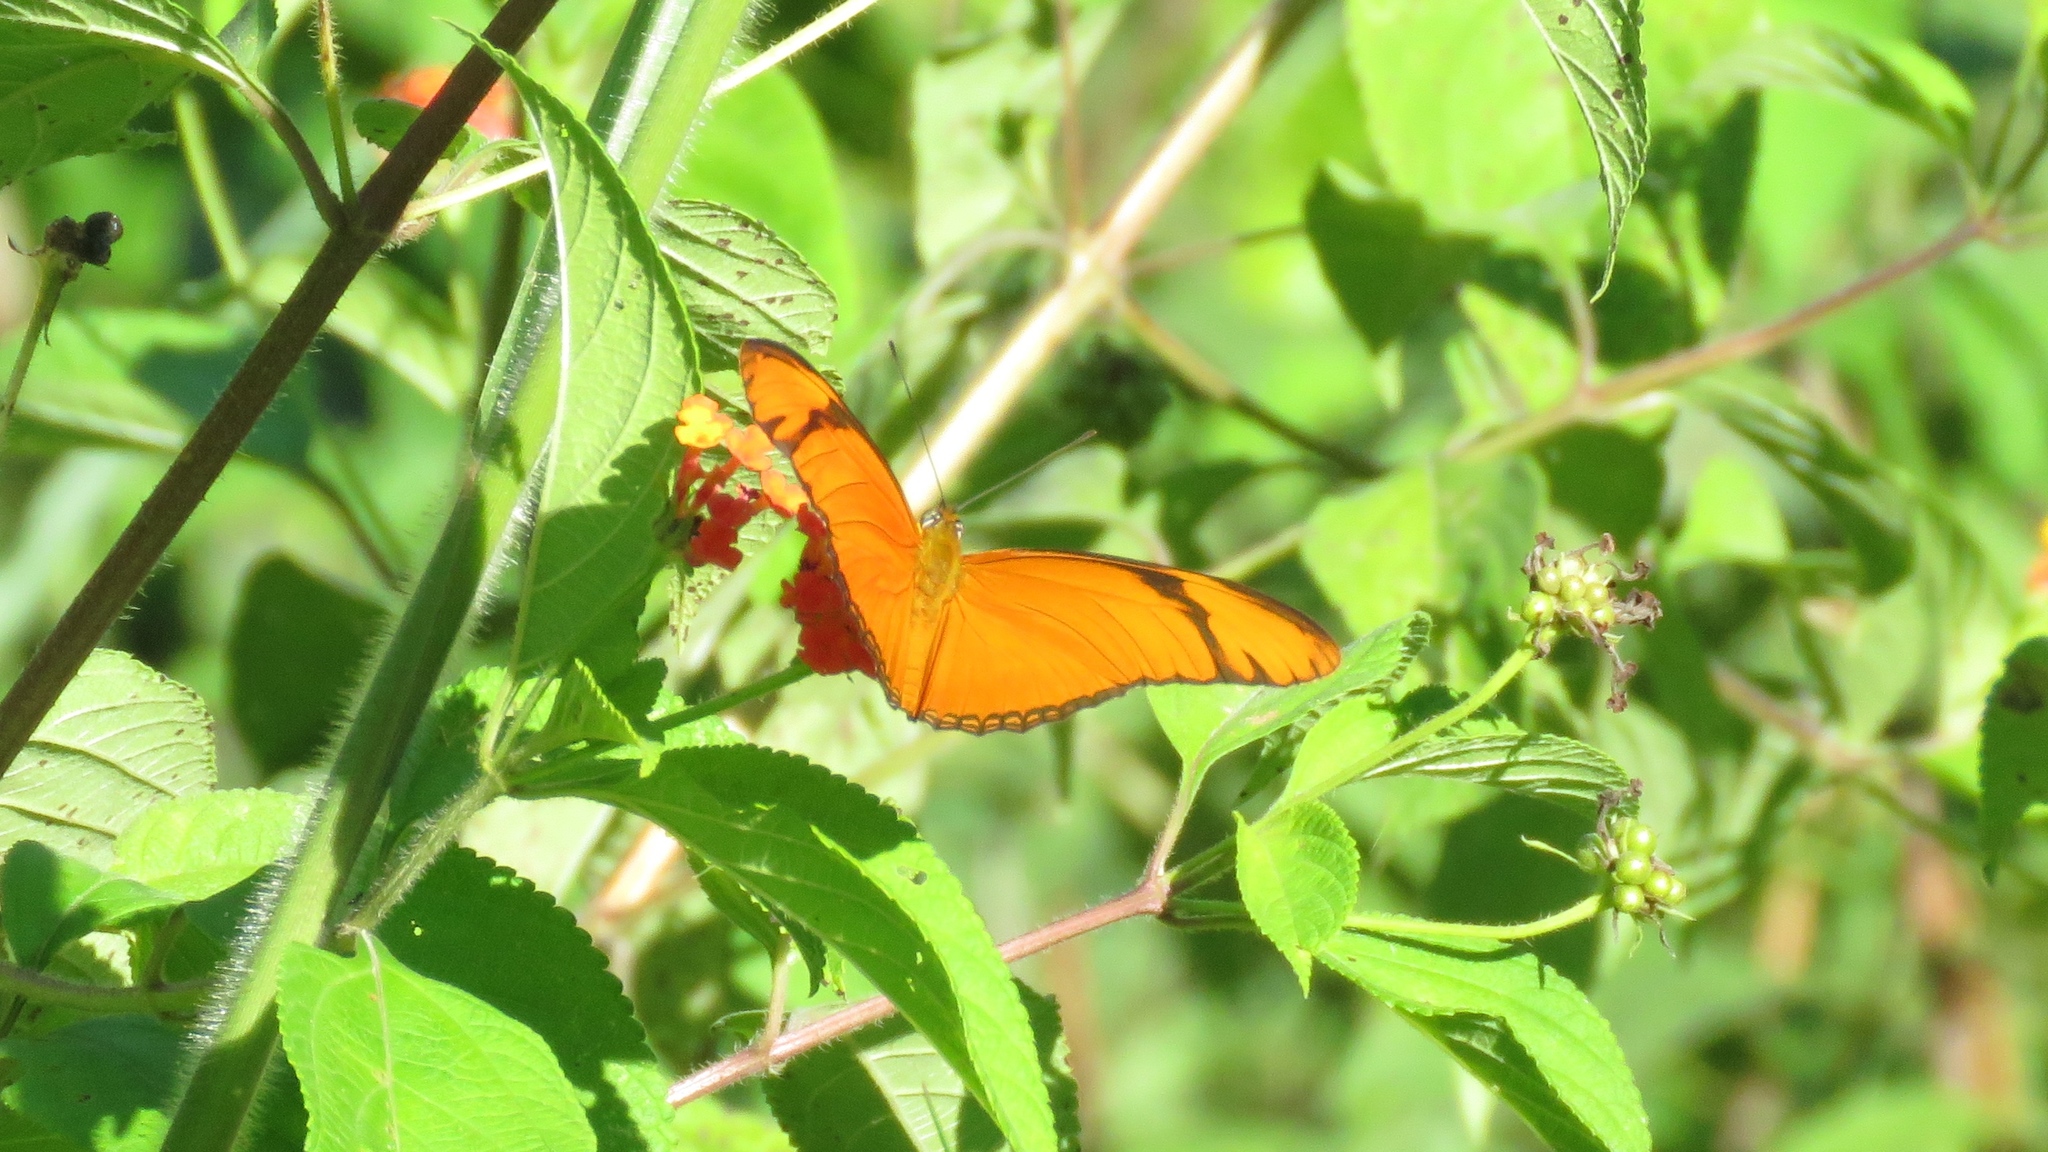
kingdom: Animalia
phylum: Arthropoda
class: Insecta
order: Lepidoptera
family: Nymphalidae
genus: Dryas
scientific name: Dryas iulia
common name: Flambeau
